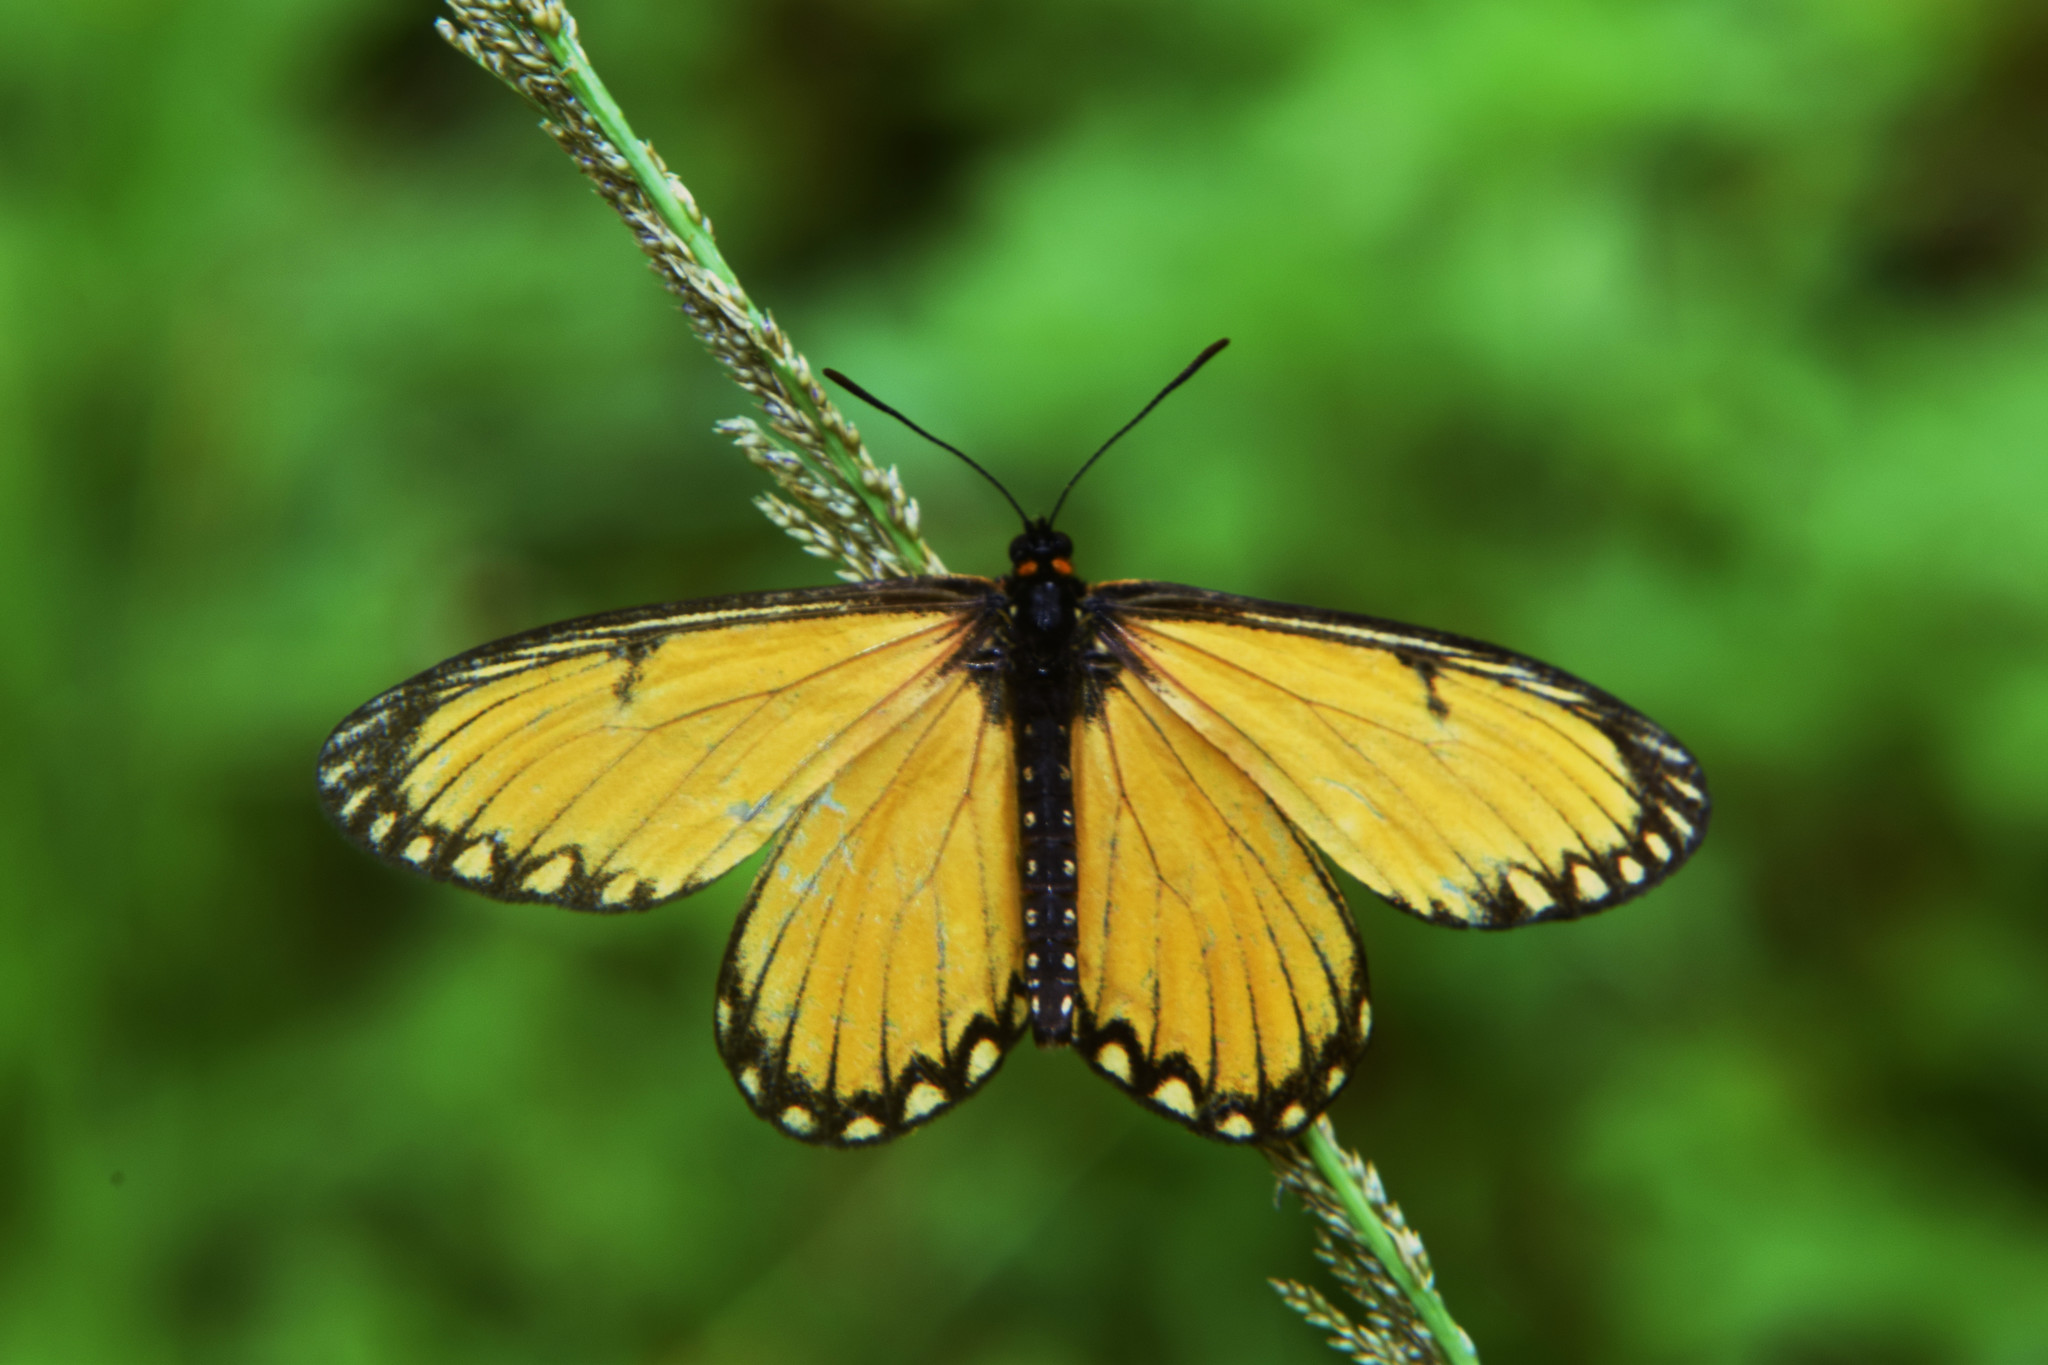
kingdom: Animalia
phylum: Arthropoda
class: Insecta
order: Lepidoptera
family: Nymphalidae
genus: Acraea
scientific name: Acraea Telchinia issoria
